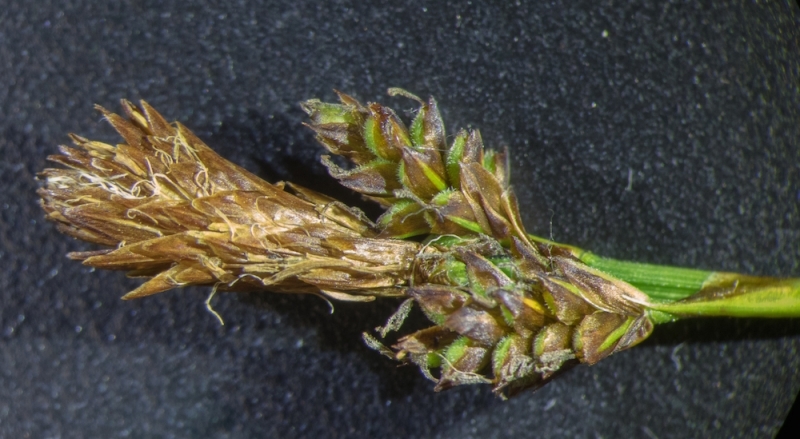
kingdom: Plantae
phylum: Tracheophyta
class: Liliopsida
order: Poales
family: Cyperaceae
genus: Carex
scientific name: Carex caryophyllea
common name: Spring sedge
